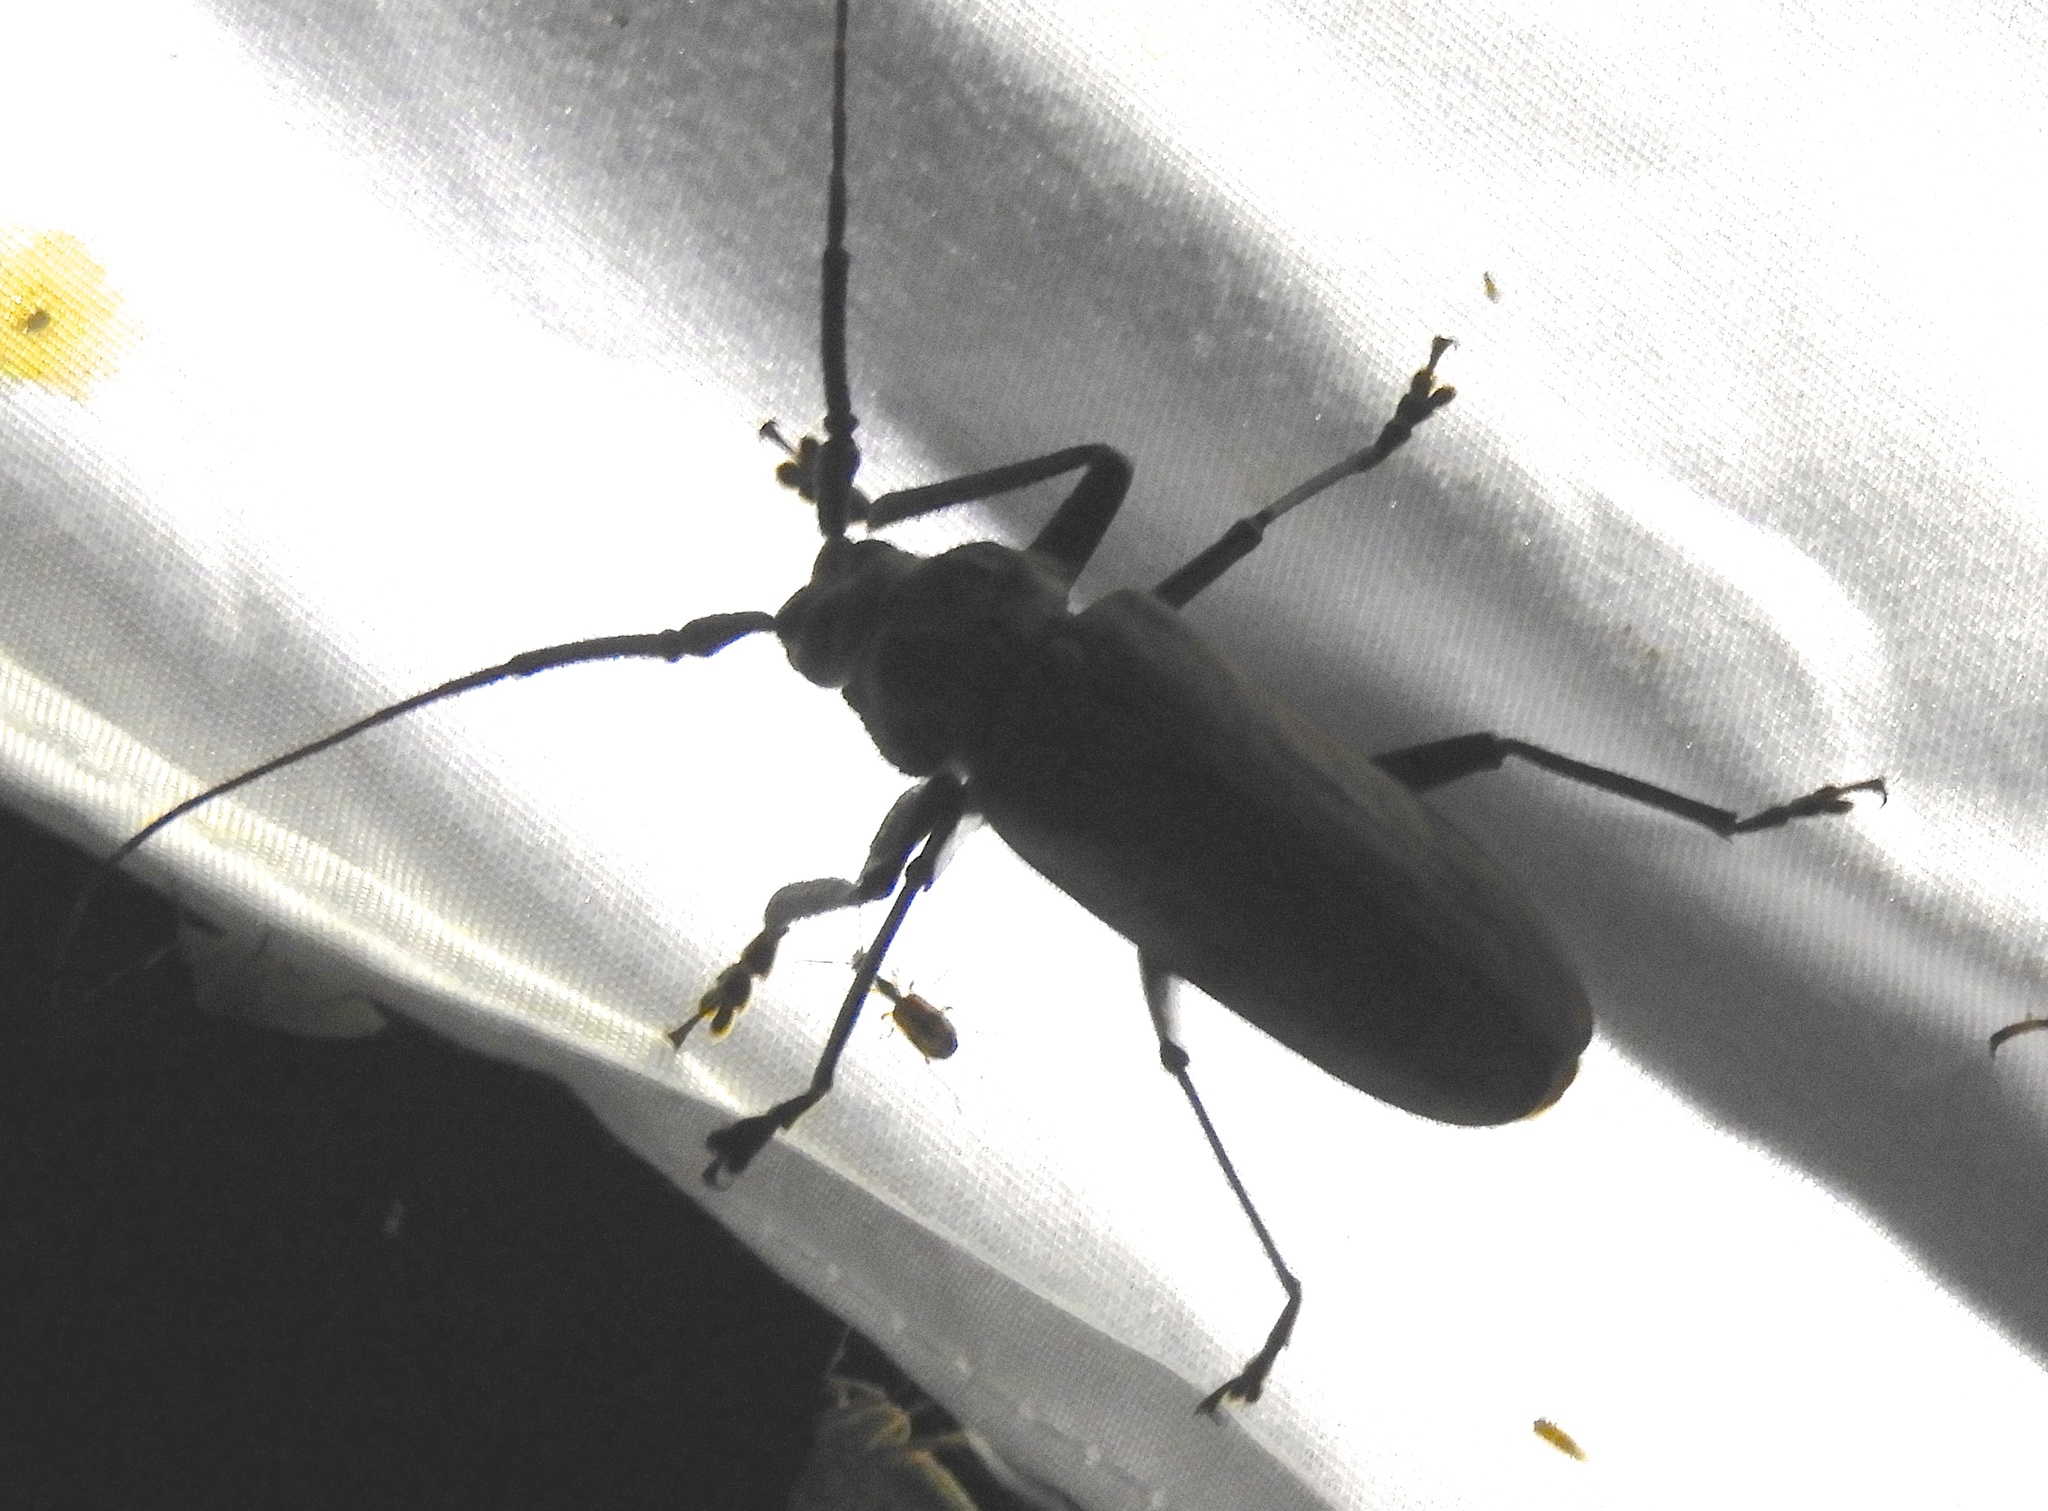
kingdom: Animalia
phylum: Arthropoda
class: Insecta
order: Coleoptera
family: Cerambycidae
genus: Strongylaspis
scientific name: Strongylaspis
